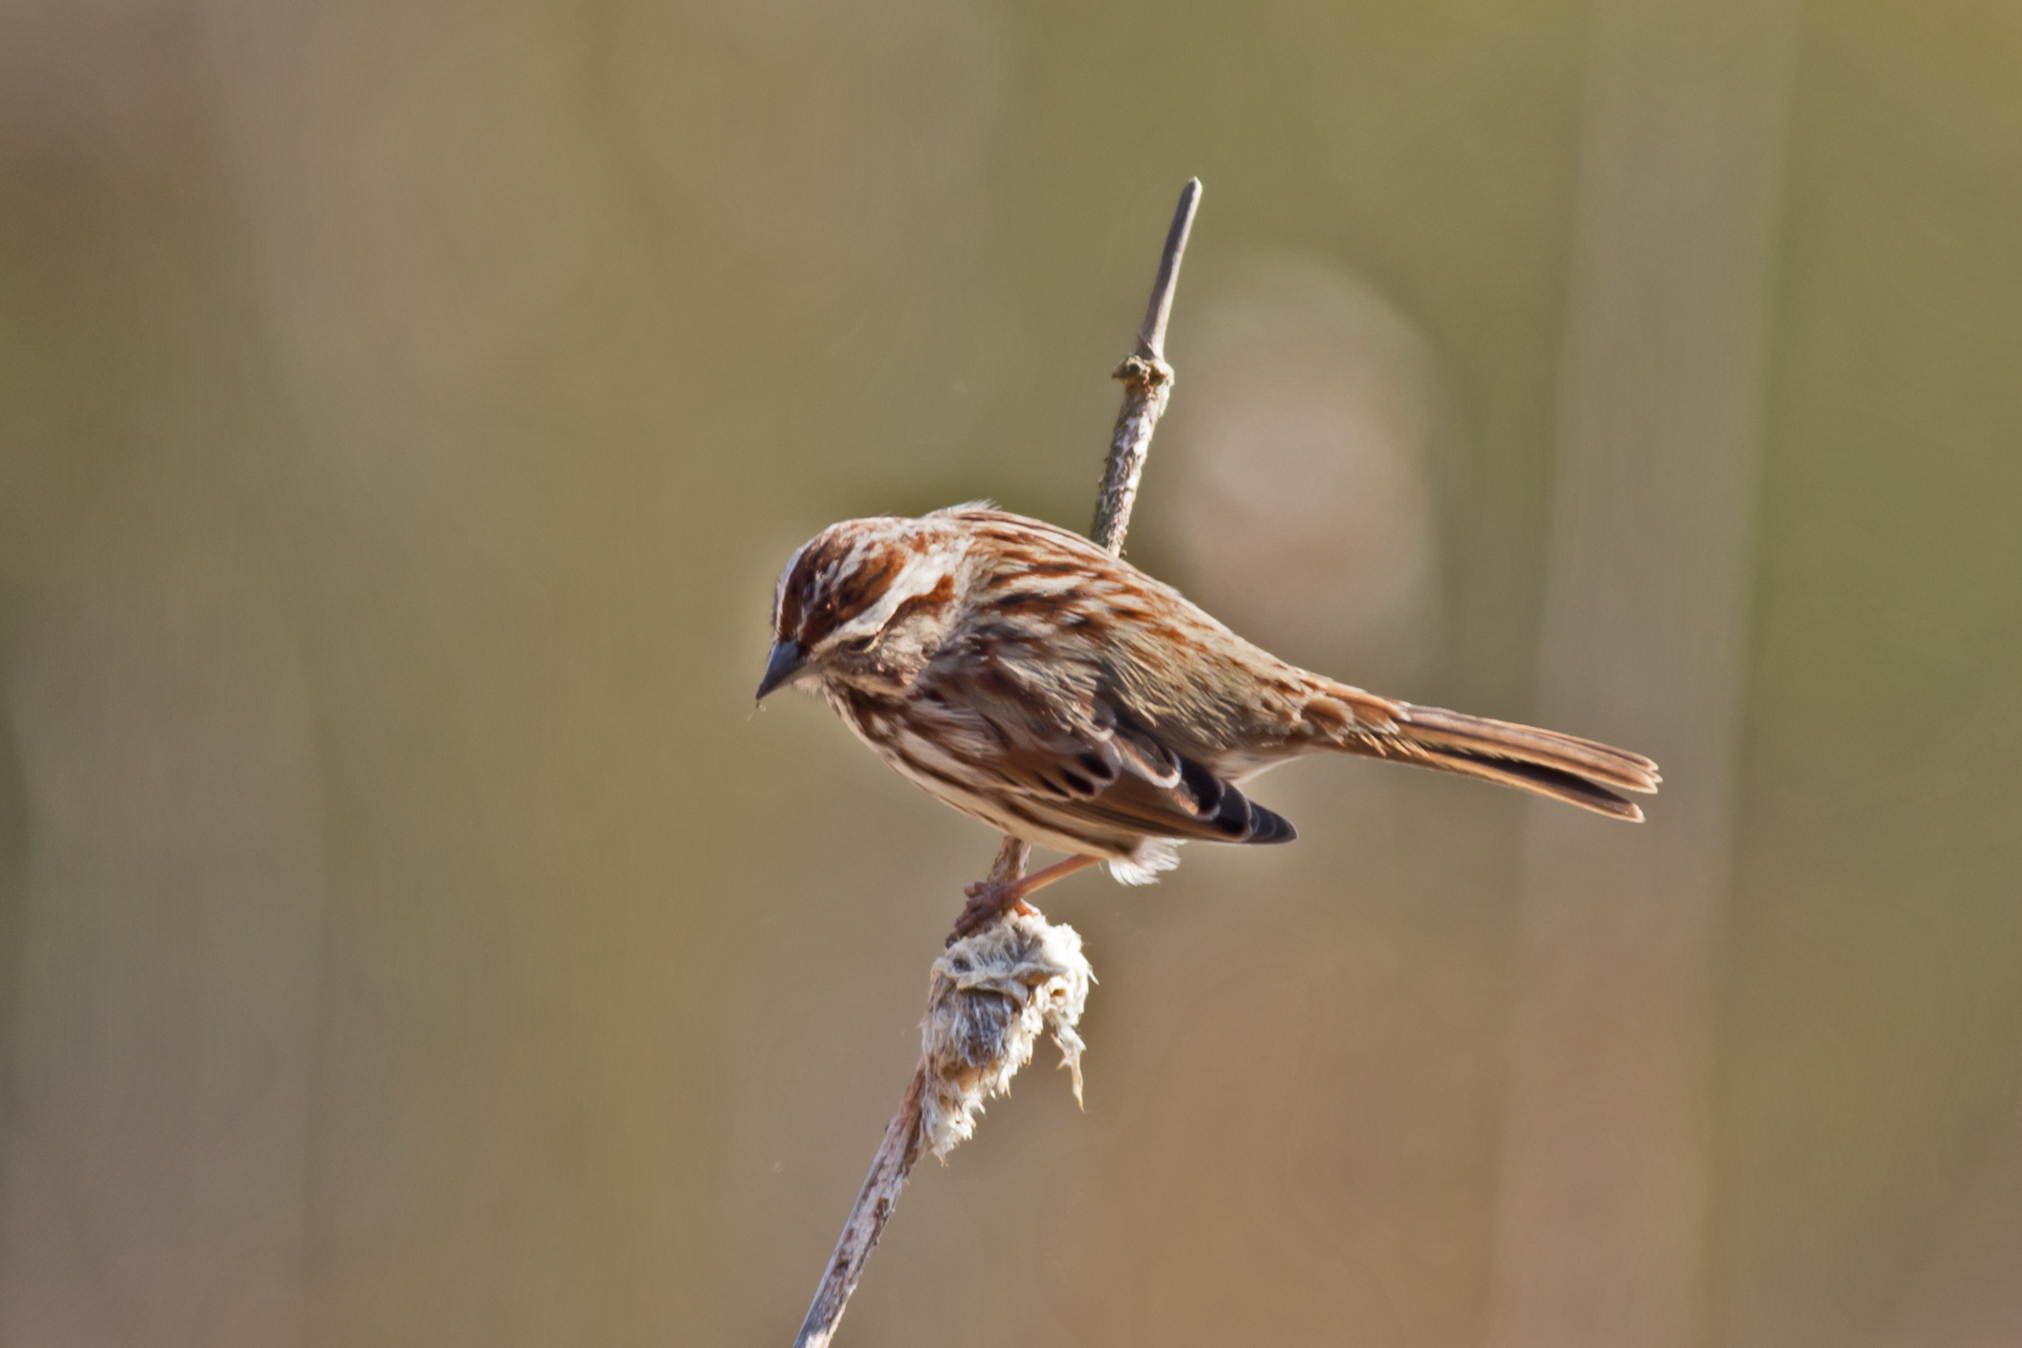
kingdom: Animalia
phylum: Chordata
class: Aves
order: Passeriformes
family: Passerellidae
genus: Melospiza
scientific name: Melospiza melodia
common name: Song sparrow
